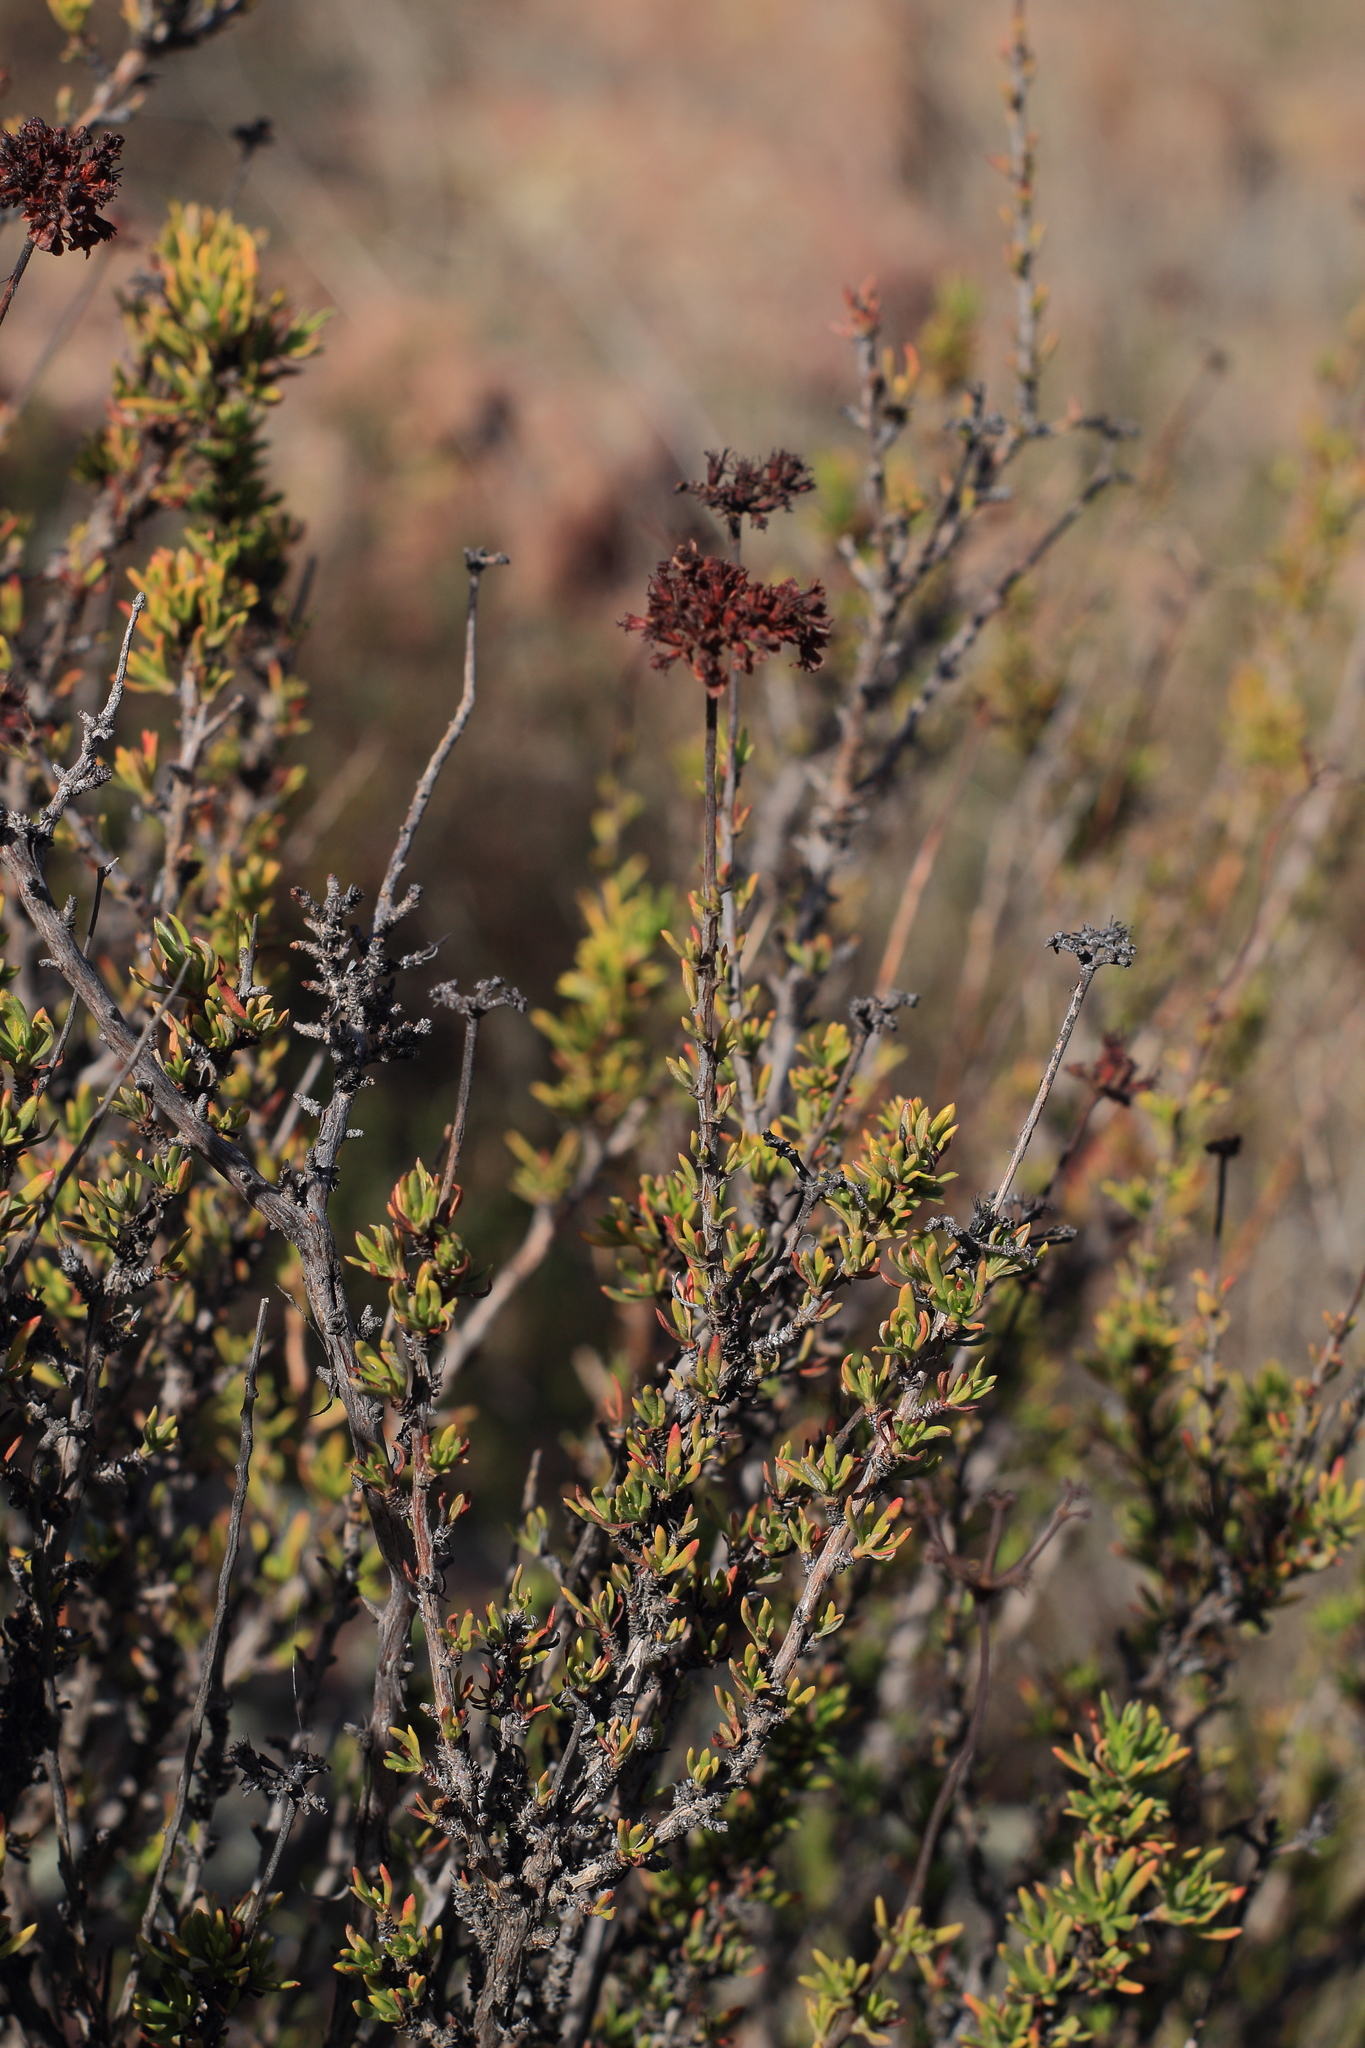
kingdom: Plantae
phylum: Tracheophyta
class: Magnoliopsida
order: Caryophyllales
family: Polygonaceae
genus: Eriogonum
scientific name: Eriogonum fasciculatum
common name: California wild buckwheat
